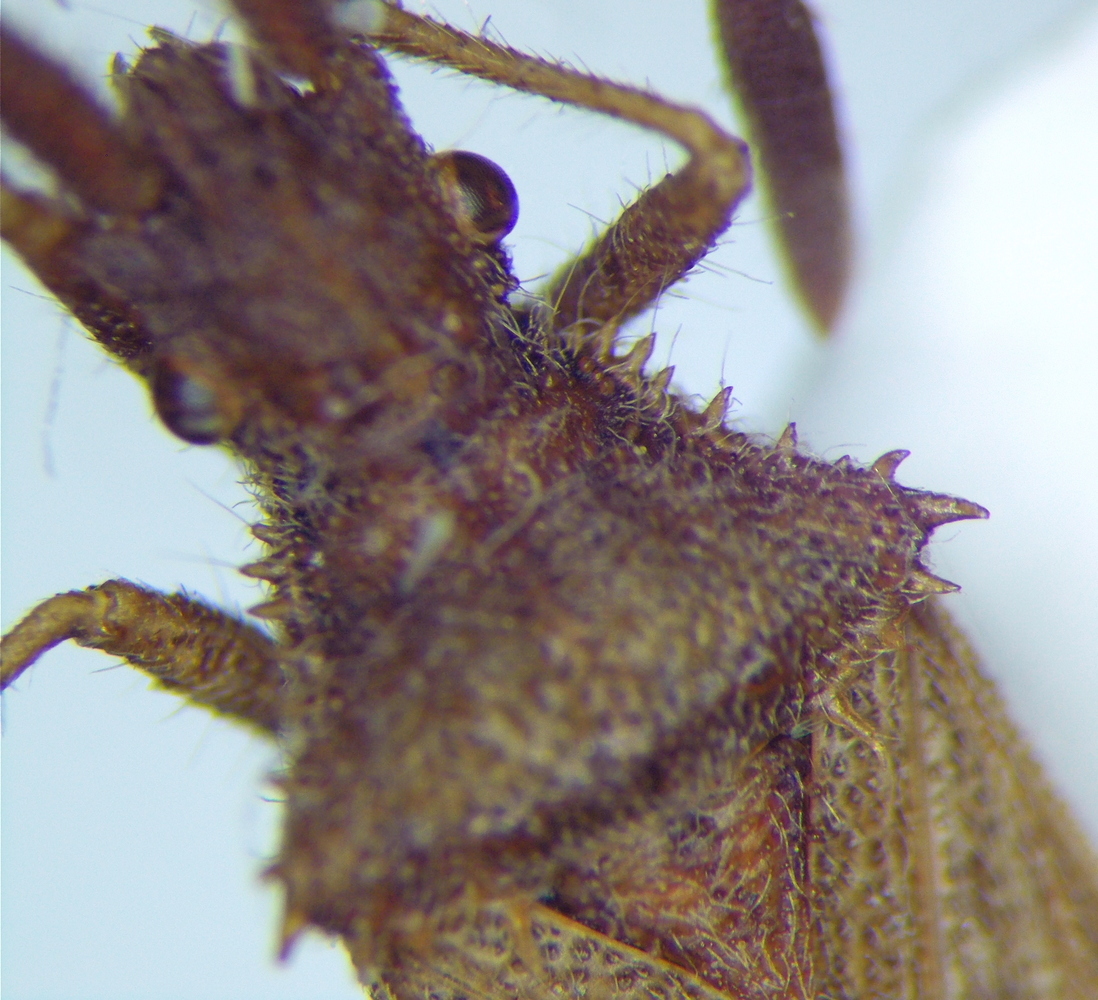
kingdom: Animalia
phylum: Arthropoda
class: Insecta
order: Hemiptera
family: Coreidae
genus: Coriomeris
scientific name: Coriomeris affinis
